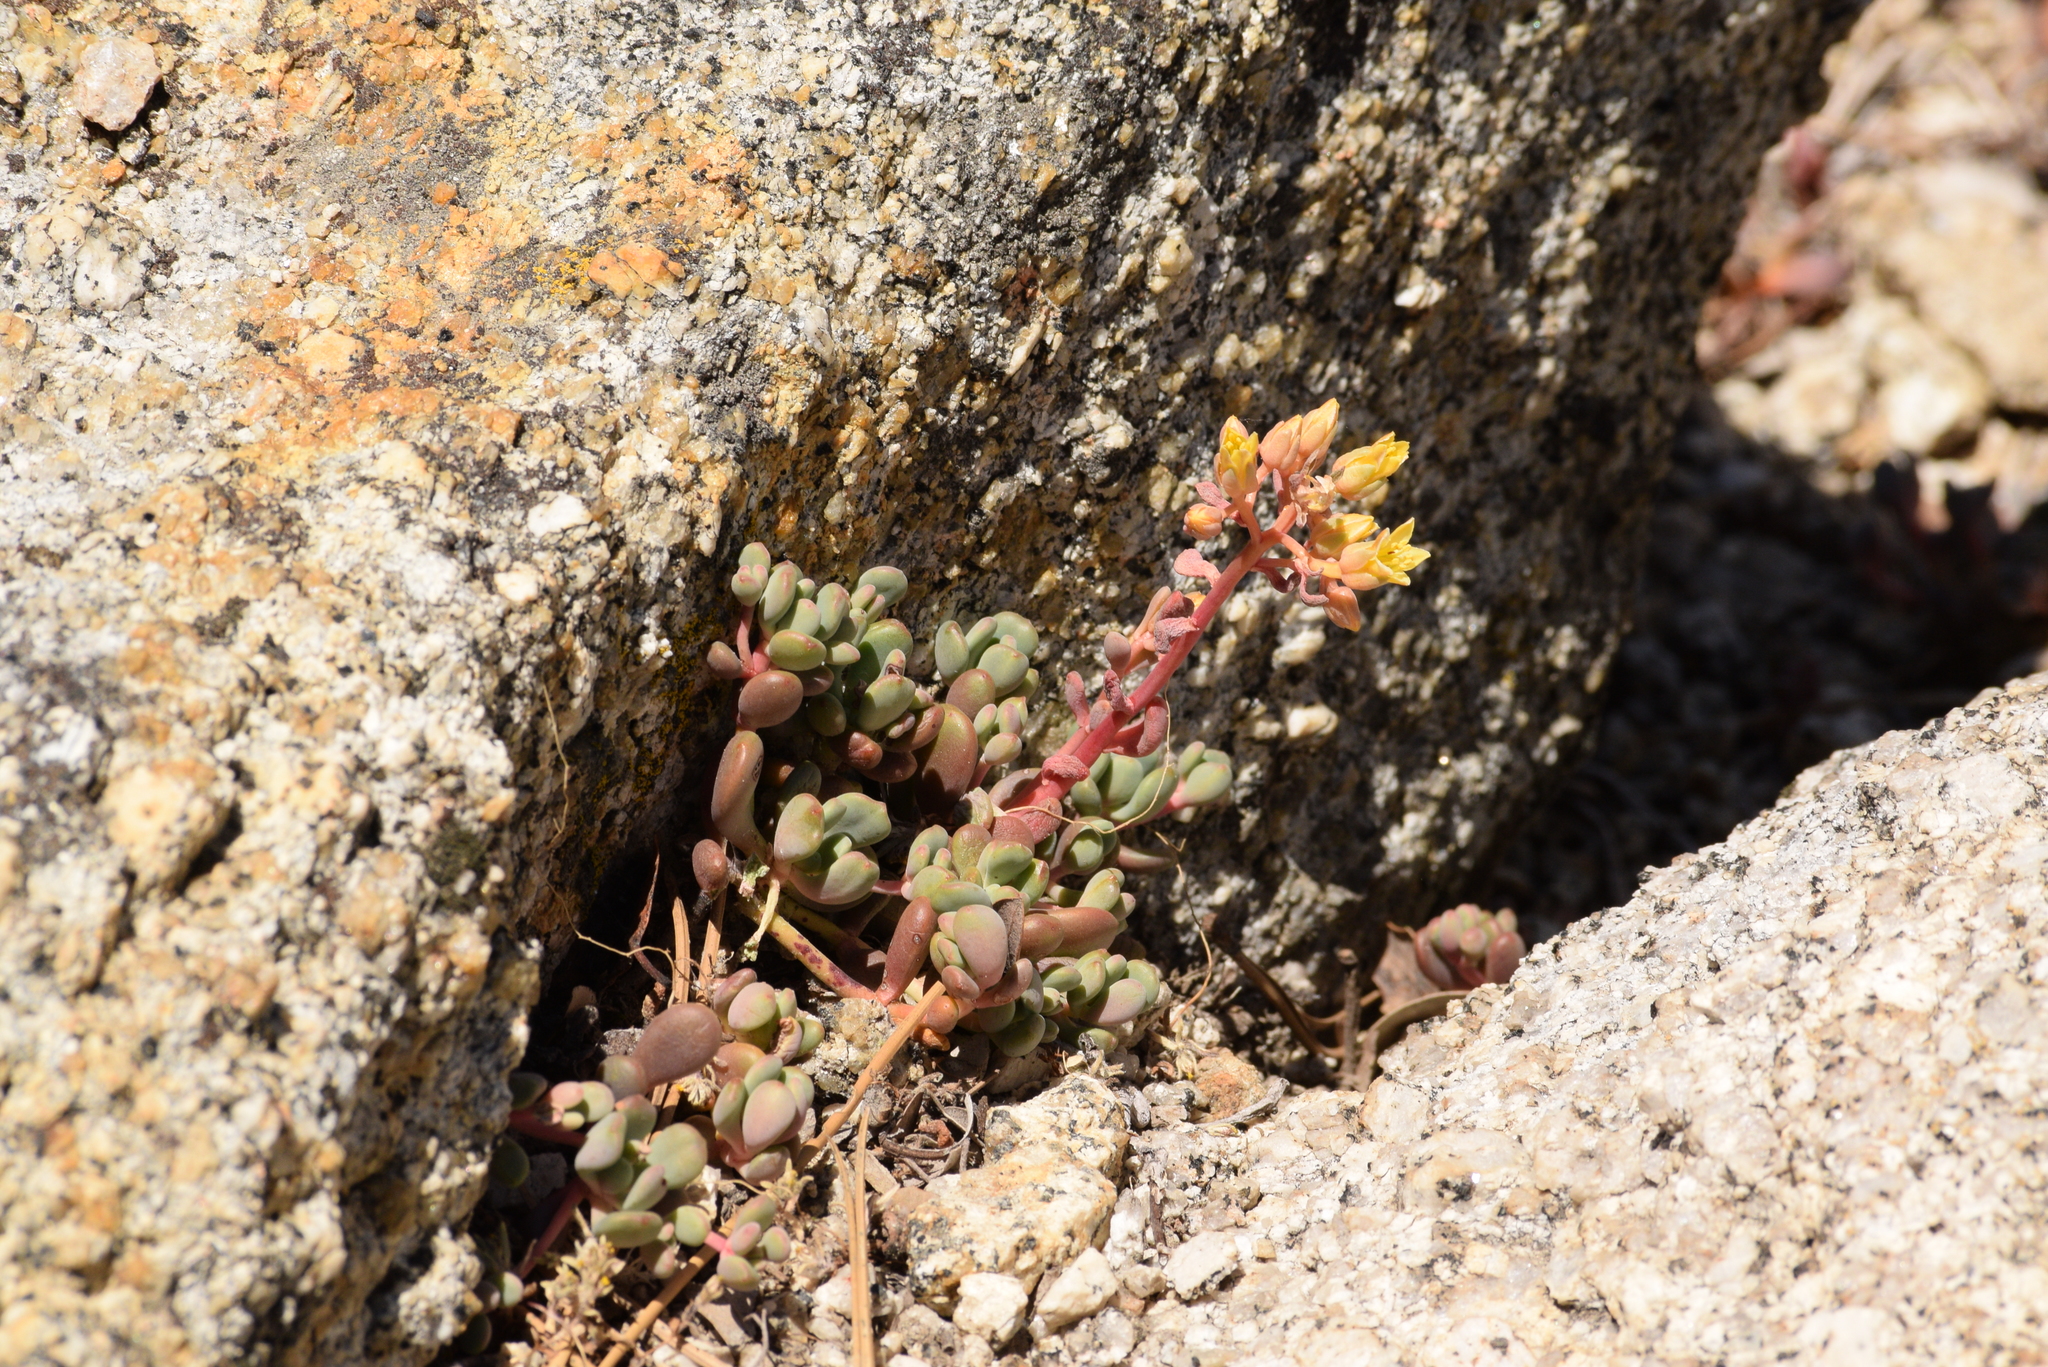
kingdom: Plantae
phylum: Tracheophyta
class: Magnoliopsida
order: Saxifragales
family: Crassulaceae
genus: Sedum
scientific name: Sedum obtusatum
